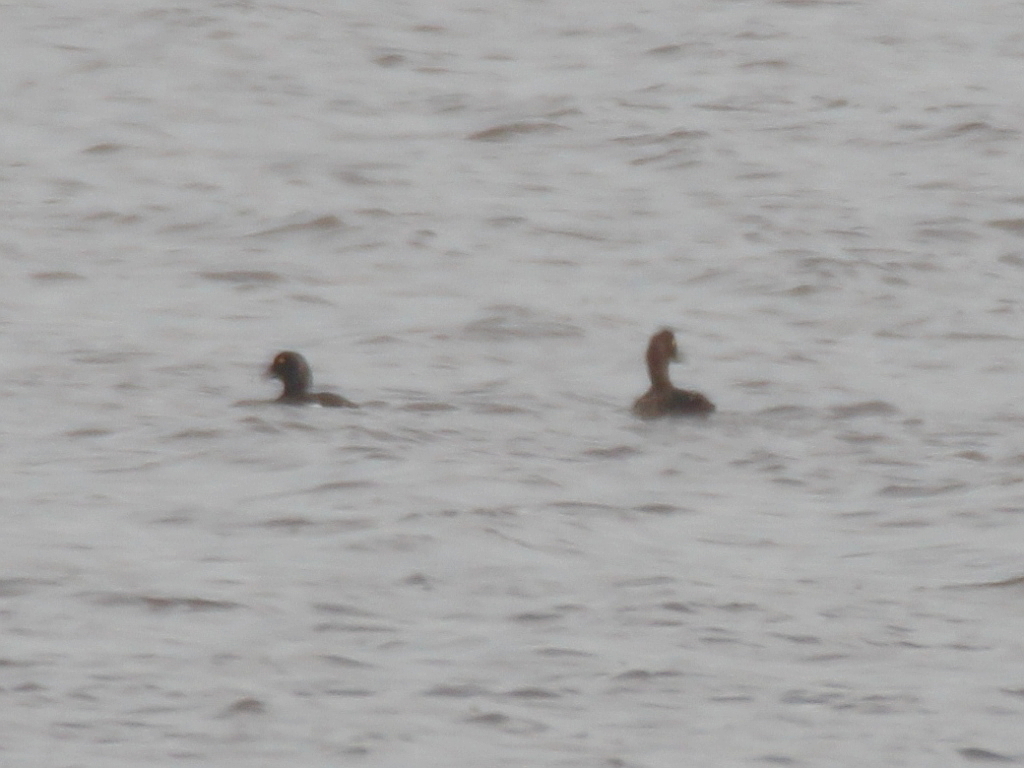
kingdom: Animalia
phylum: Chordata
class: Aves
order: Anseriformes
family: Anatidae
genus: Aythya
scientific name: Aythya fuligula
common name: Tufted duck
